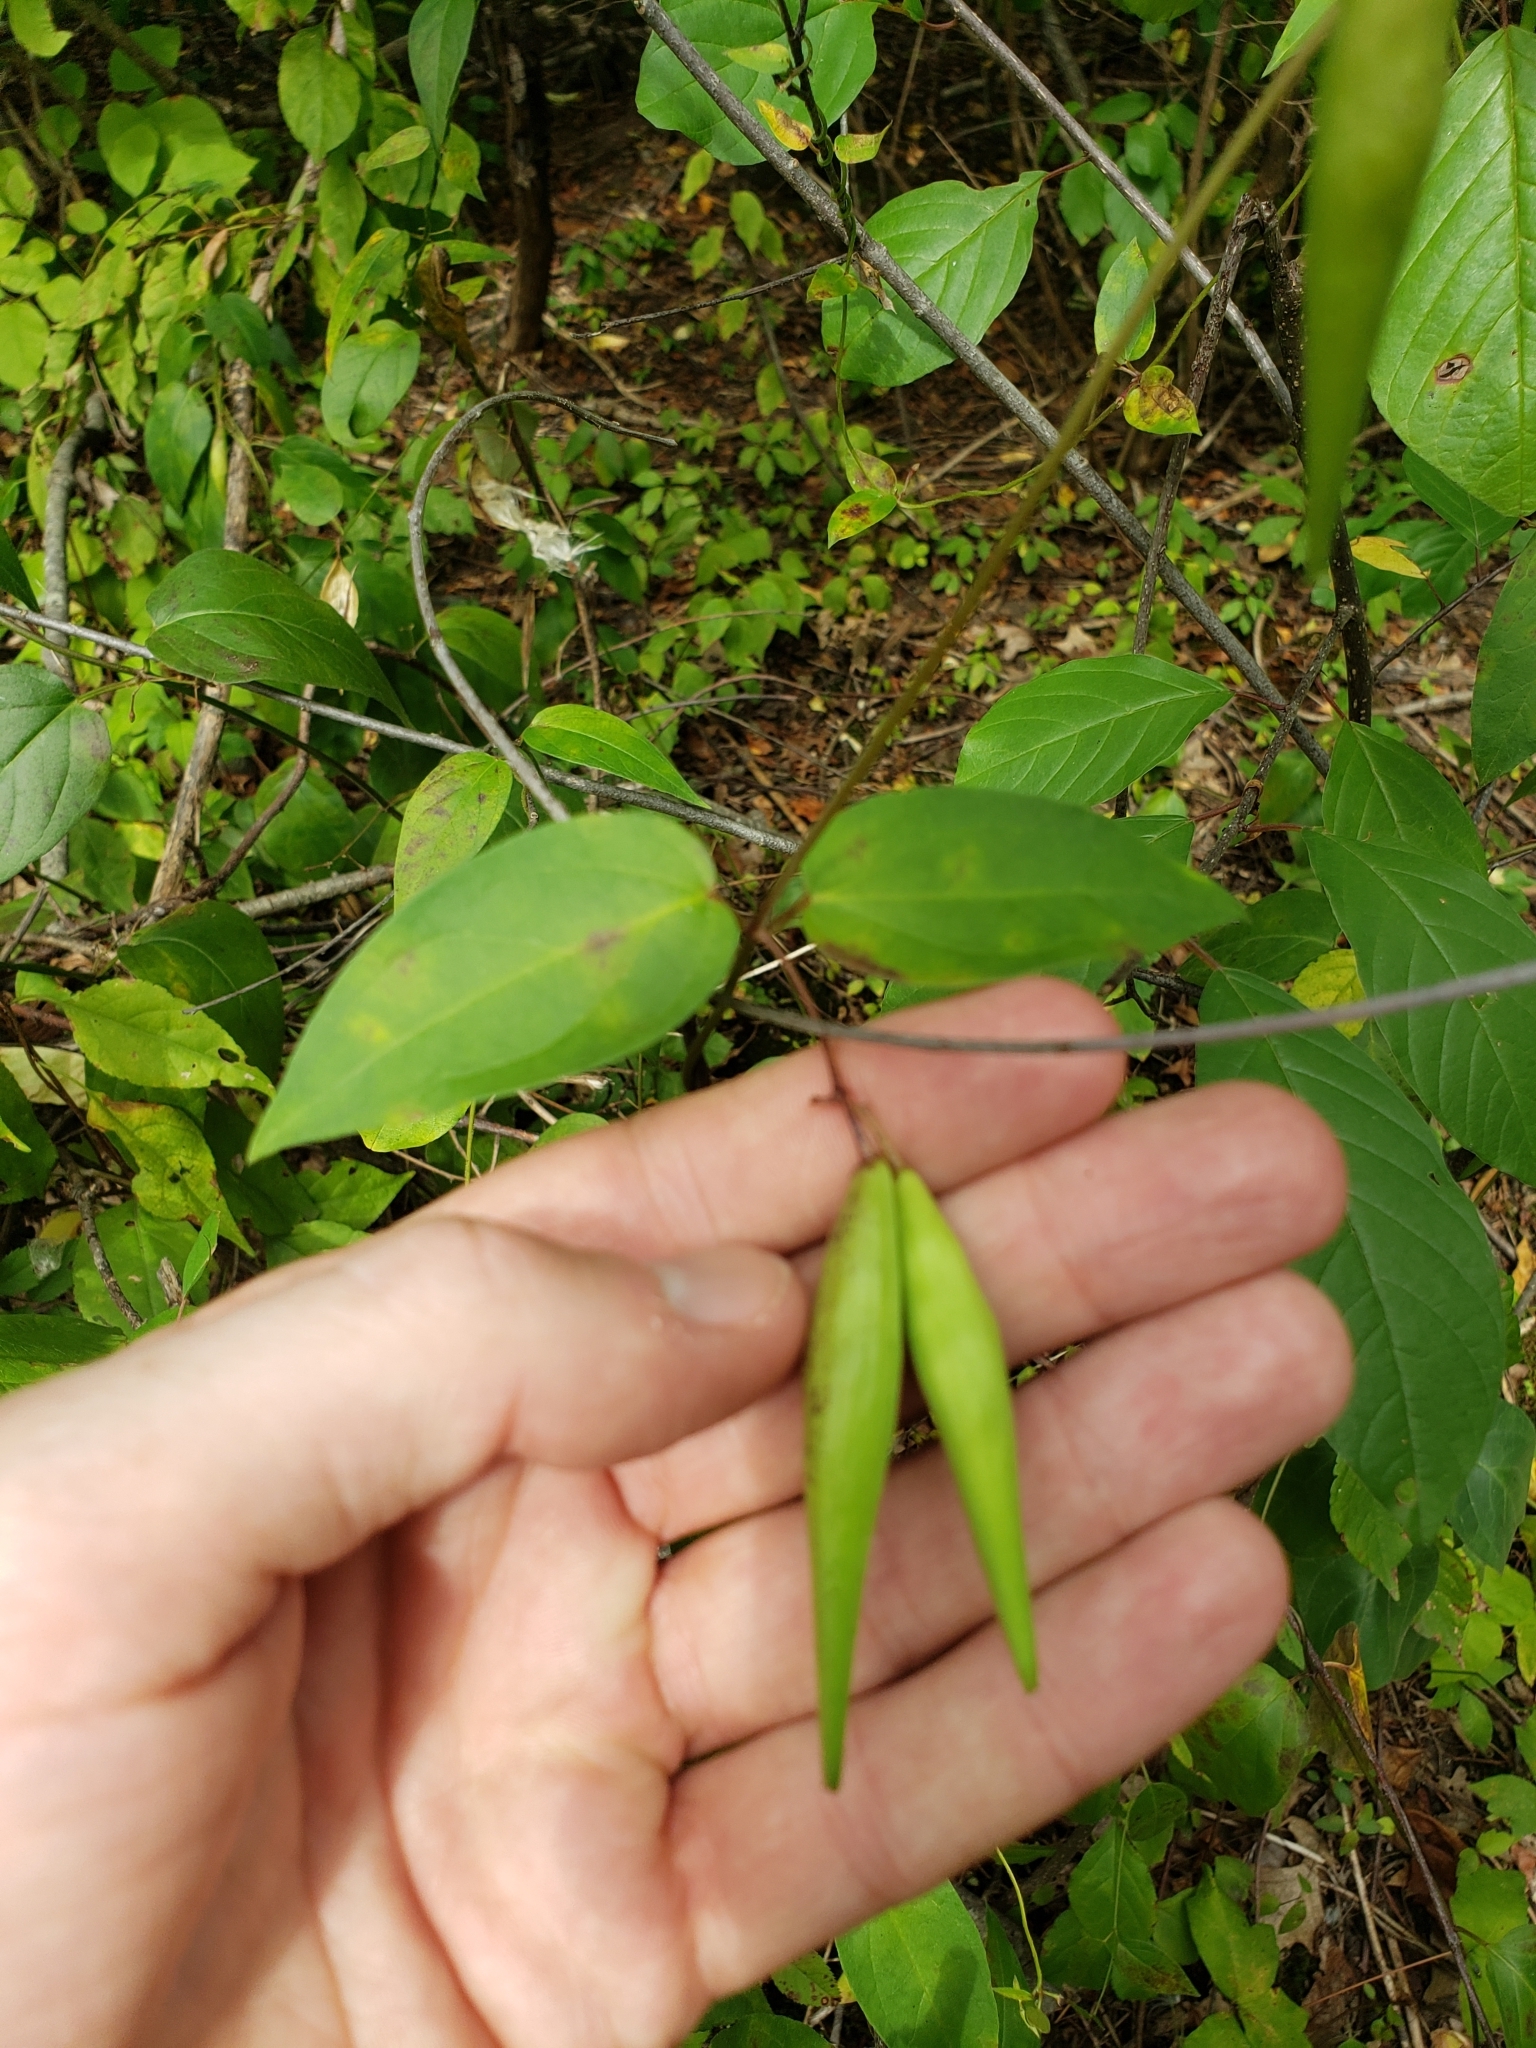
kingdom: Plantae
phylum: Tracheophyta
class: Magnoliopsida
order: Gentianales
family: Apocynaceae
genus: Vincetoxicum
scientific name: Vincetoxicum
